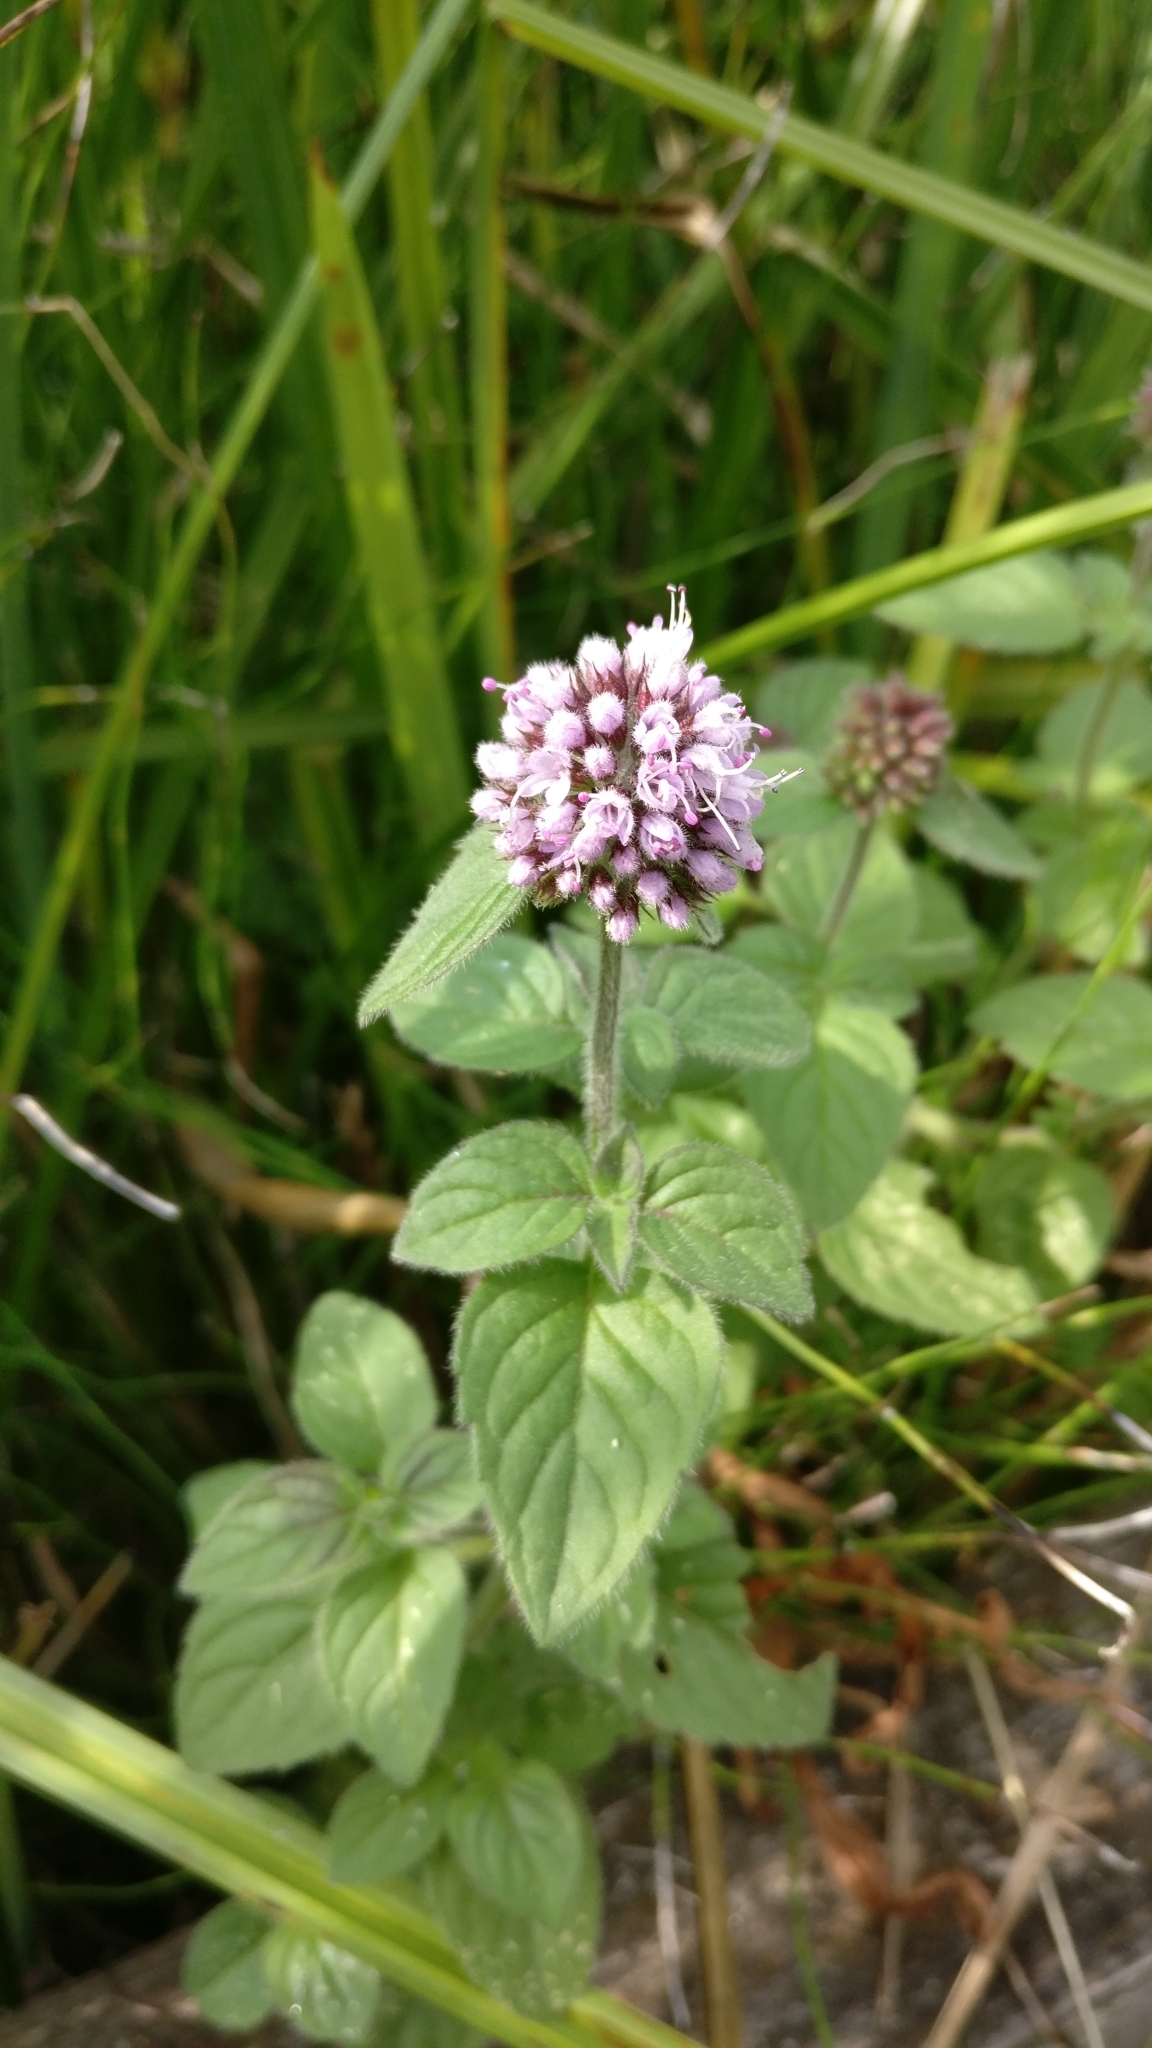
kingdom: Plantae
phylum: Tracheophyta
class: Magnoliopsida
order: Lamiales
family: Lamiaceae
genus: Mentha
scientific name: Mentha aquatica
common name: Water mint
